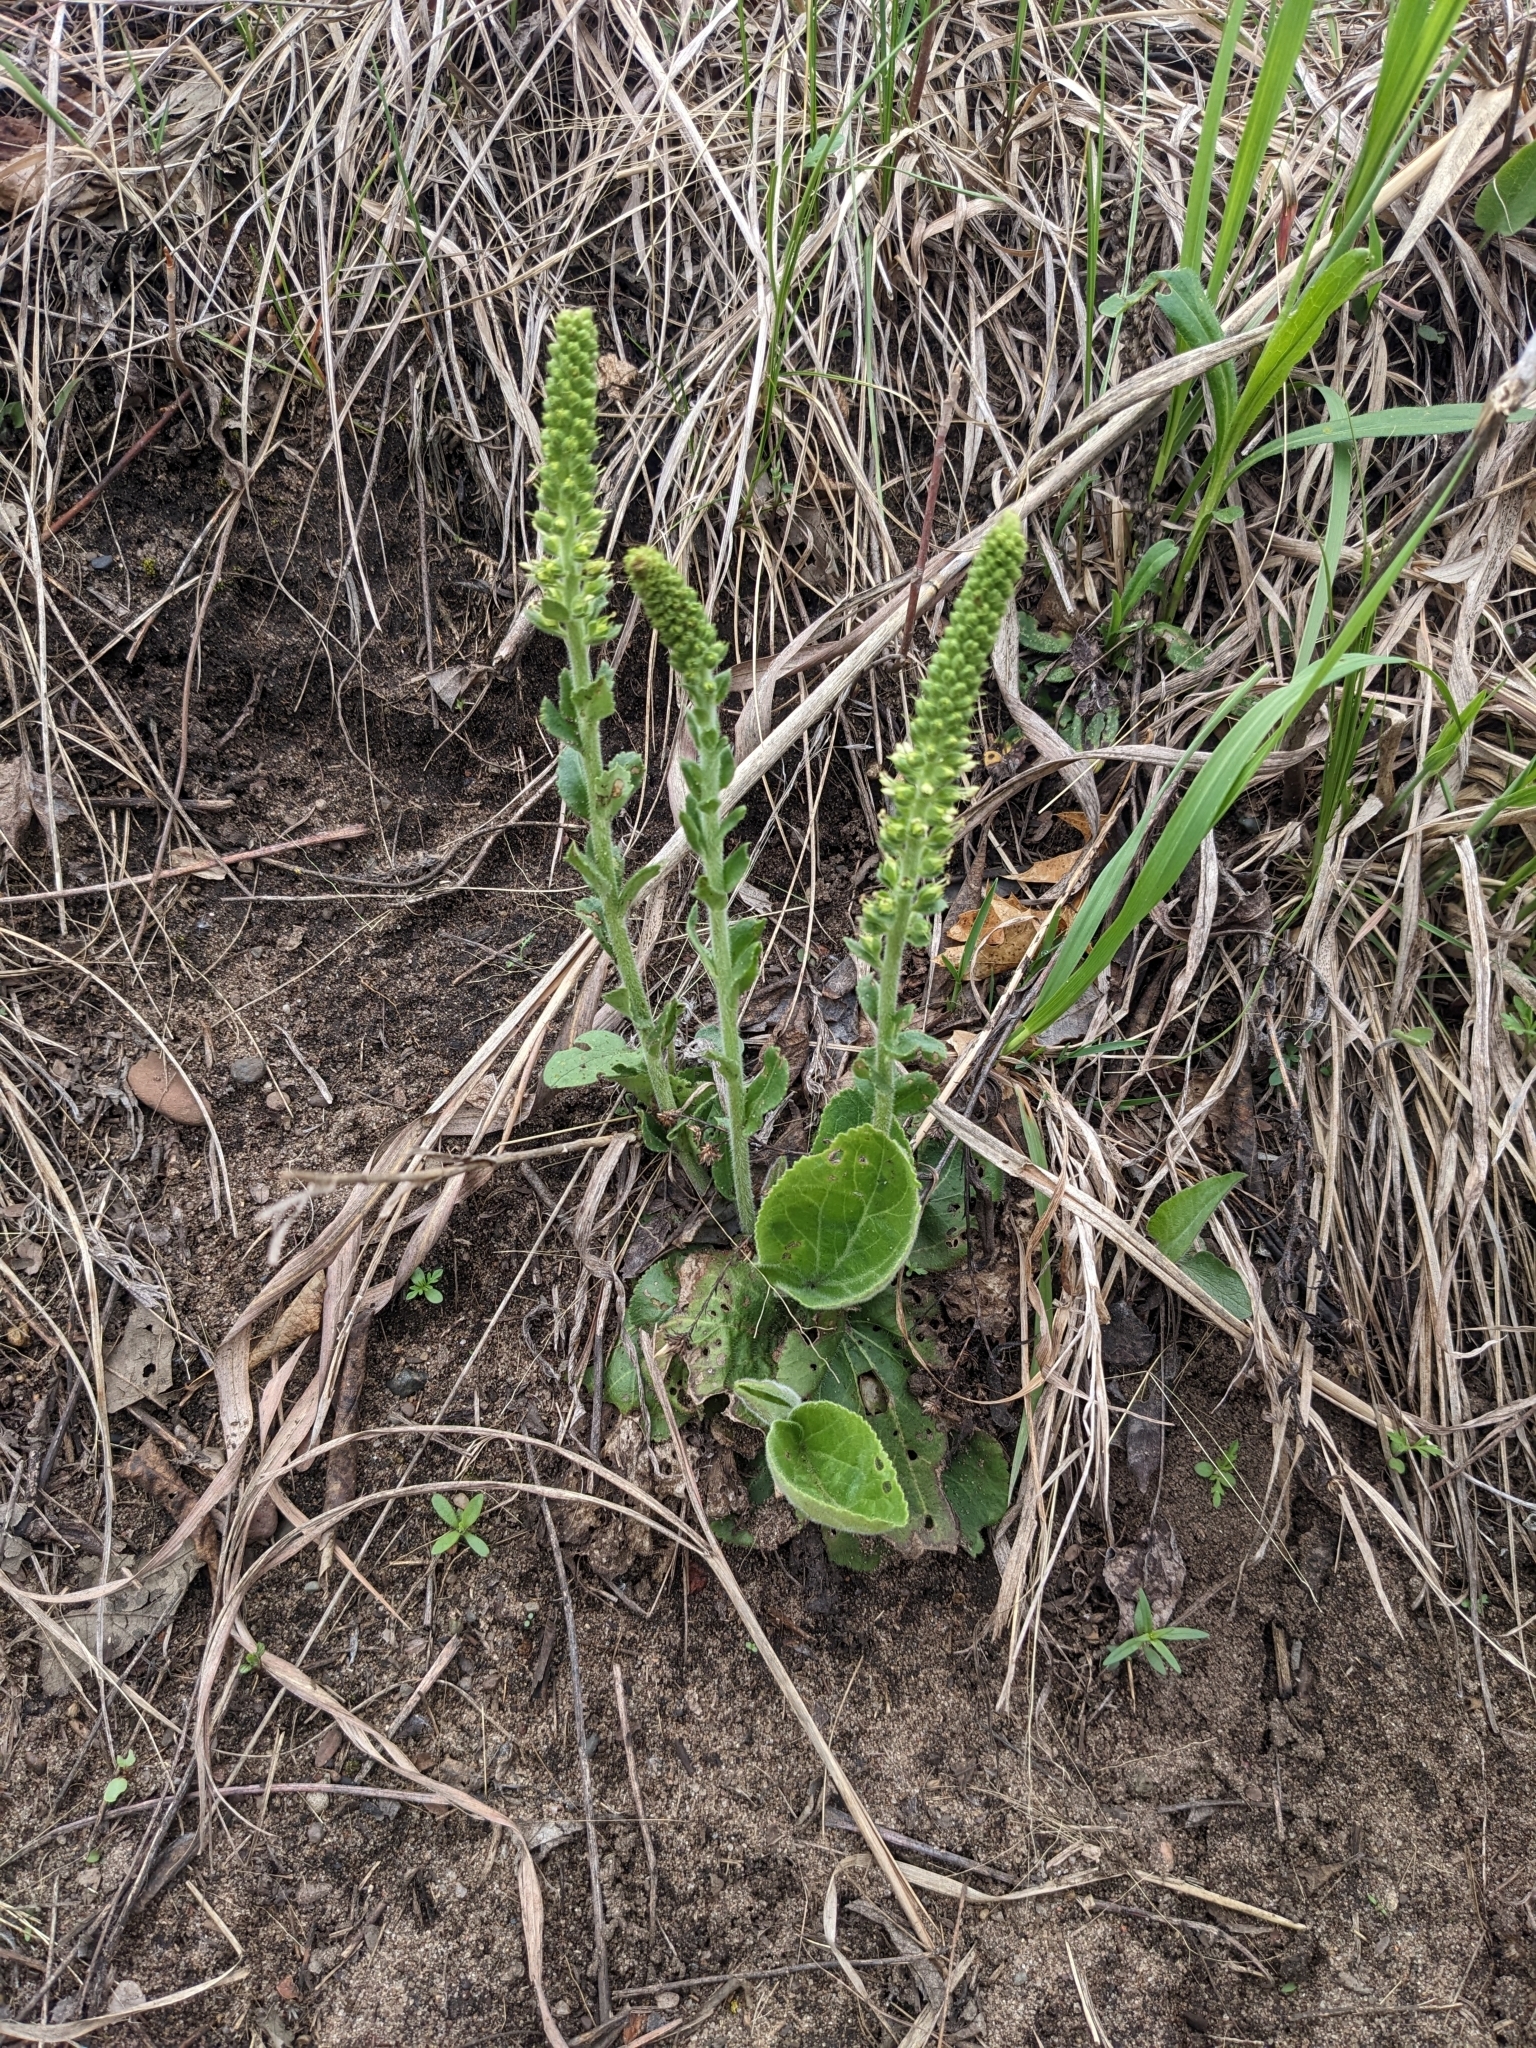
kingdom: Plantae
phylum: Tracheophyta
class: Magnoliopsida
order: Lamiales
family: Plantaginaceae
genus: Synthyris
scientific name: Synthyris bullii
